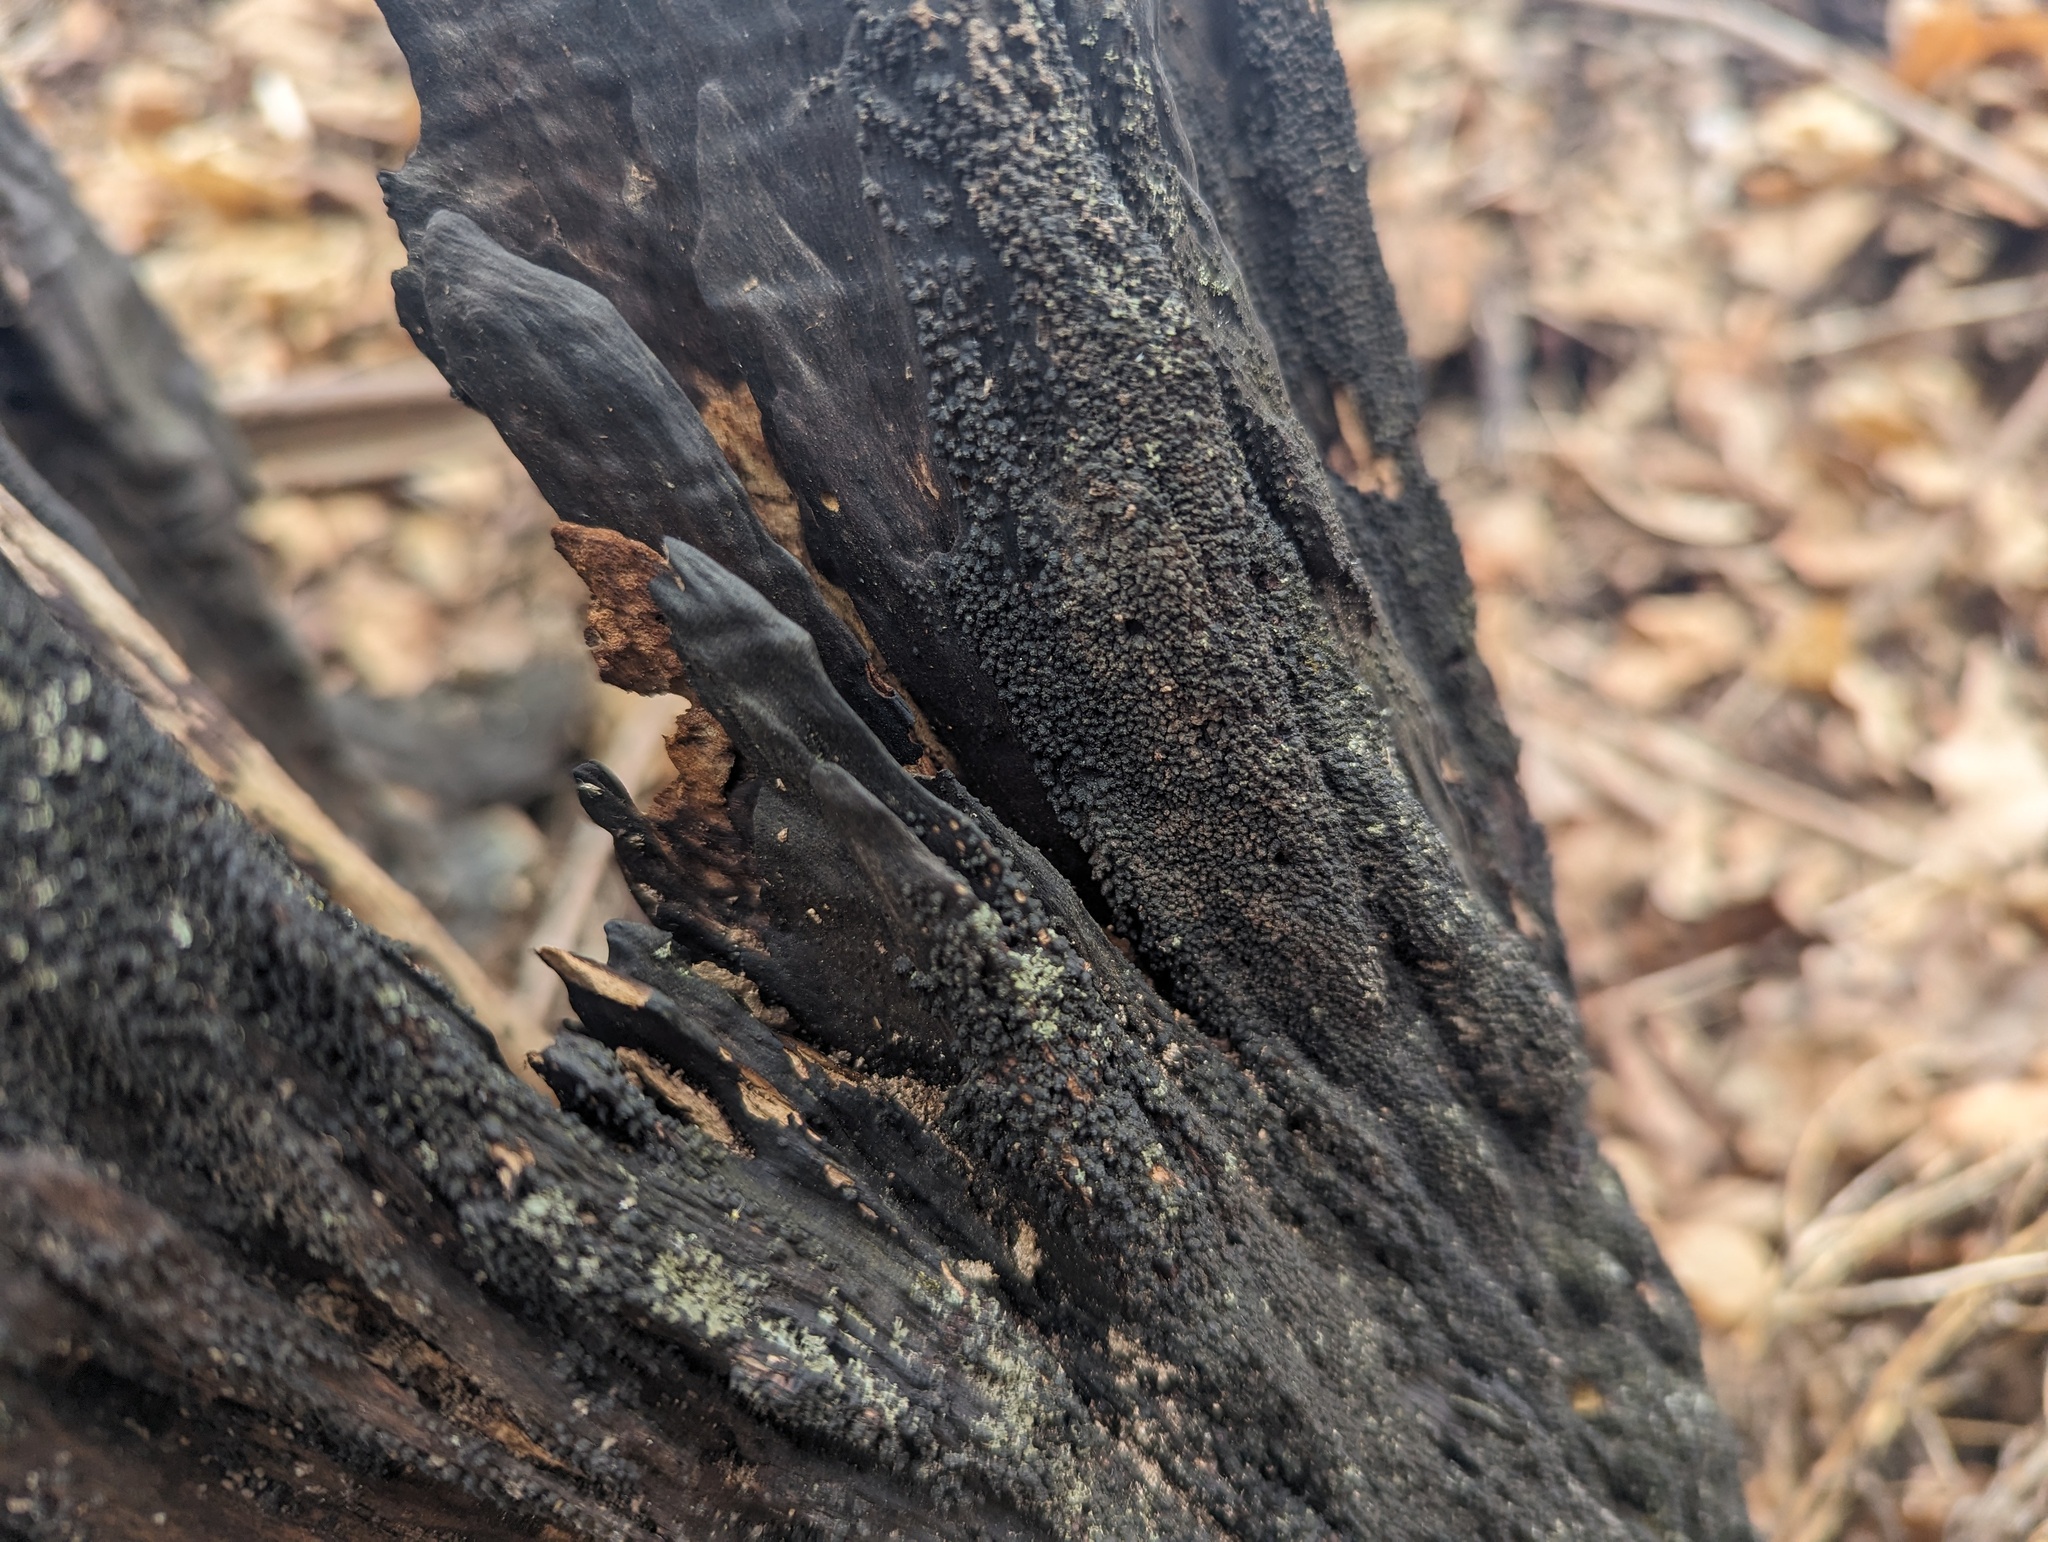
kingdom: Fungi
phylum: Ascomycota
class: Sordariomycetes
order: Xylariales
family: Diatrypaceae
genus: Eutypa
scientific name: Eutypa spinosa
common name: Spiral tarcrust
